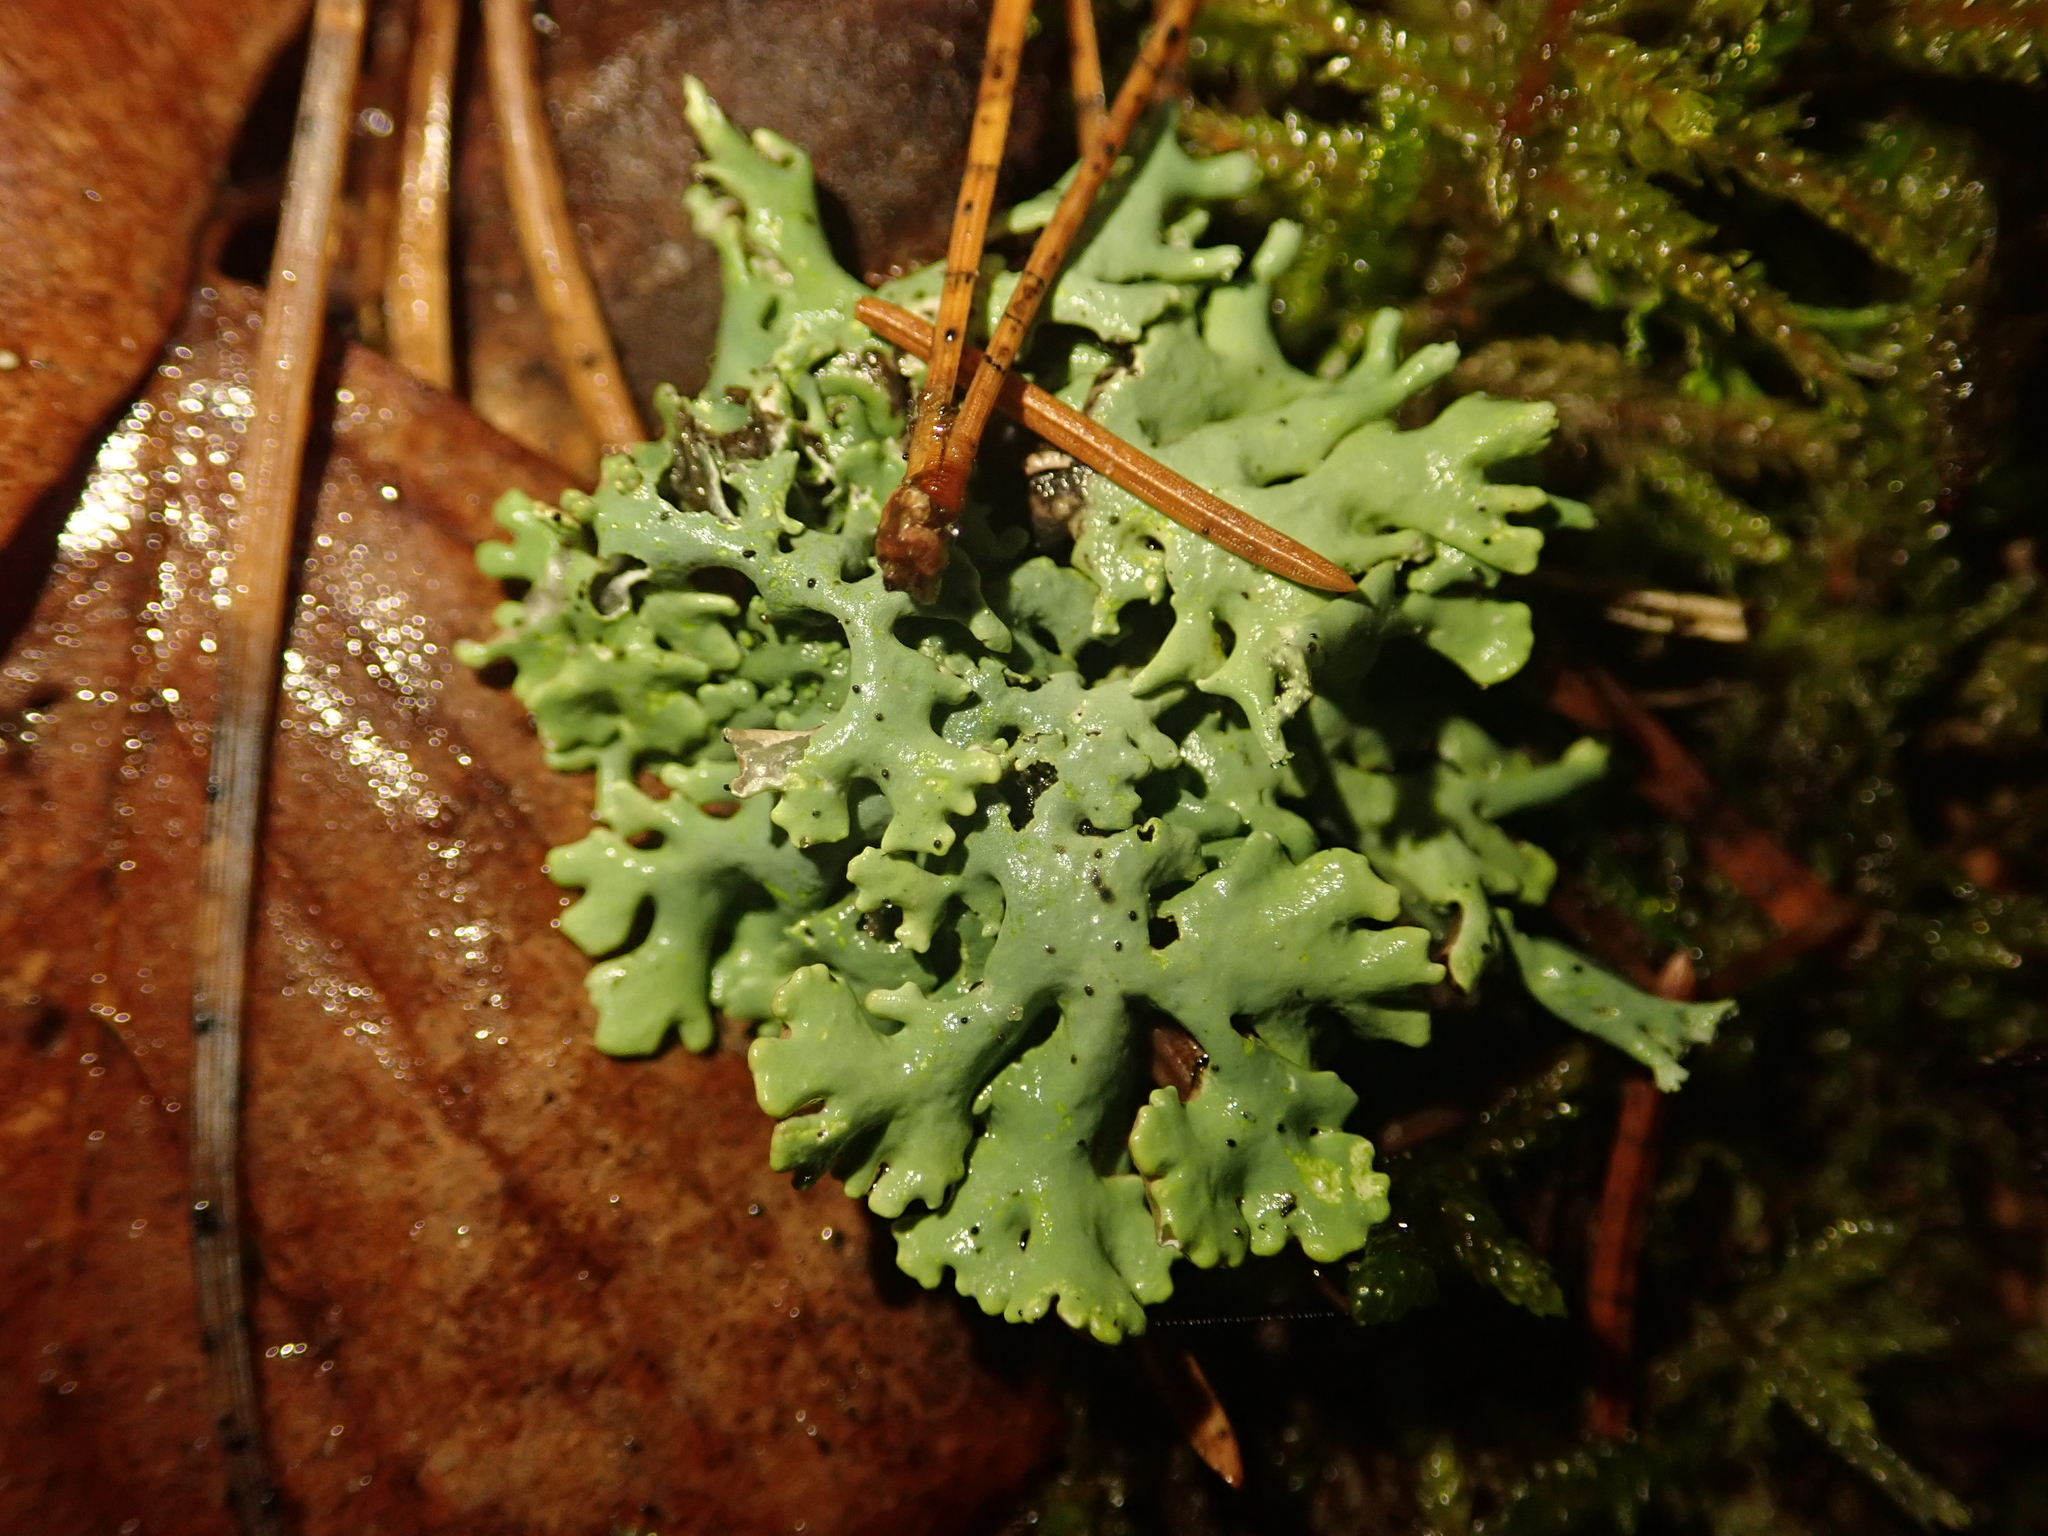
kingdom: Fungi
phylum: Ascomycota
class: Lecanoromycetes
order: Lecanorales
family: Parmeliaceae
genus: Hypogymnia
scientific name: Hypogymnia physodes
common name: Dark crottle
